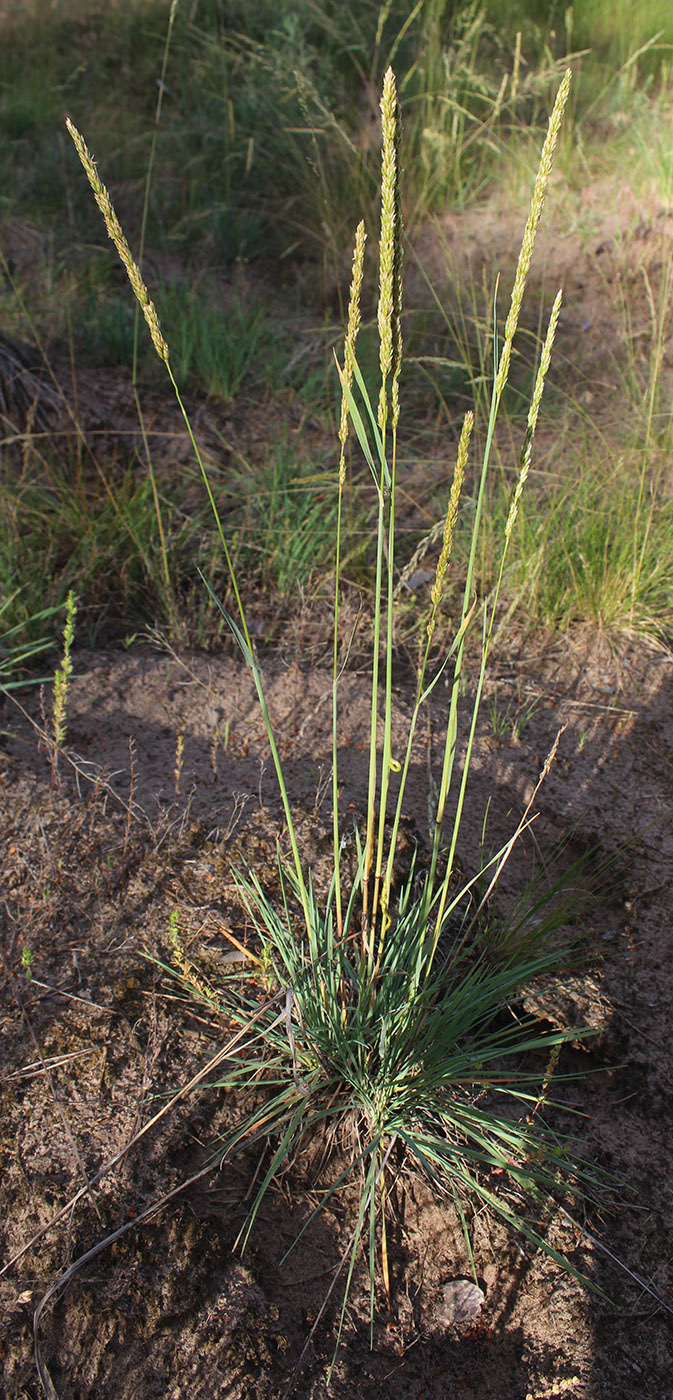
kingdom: Plantae
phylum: Tracheophyta
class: Liliopsida
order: Poales
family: Poaceae
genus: Koeleria
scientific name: Koeleria glauca
